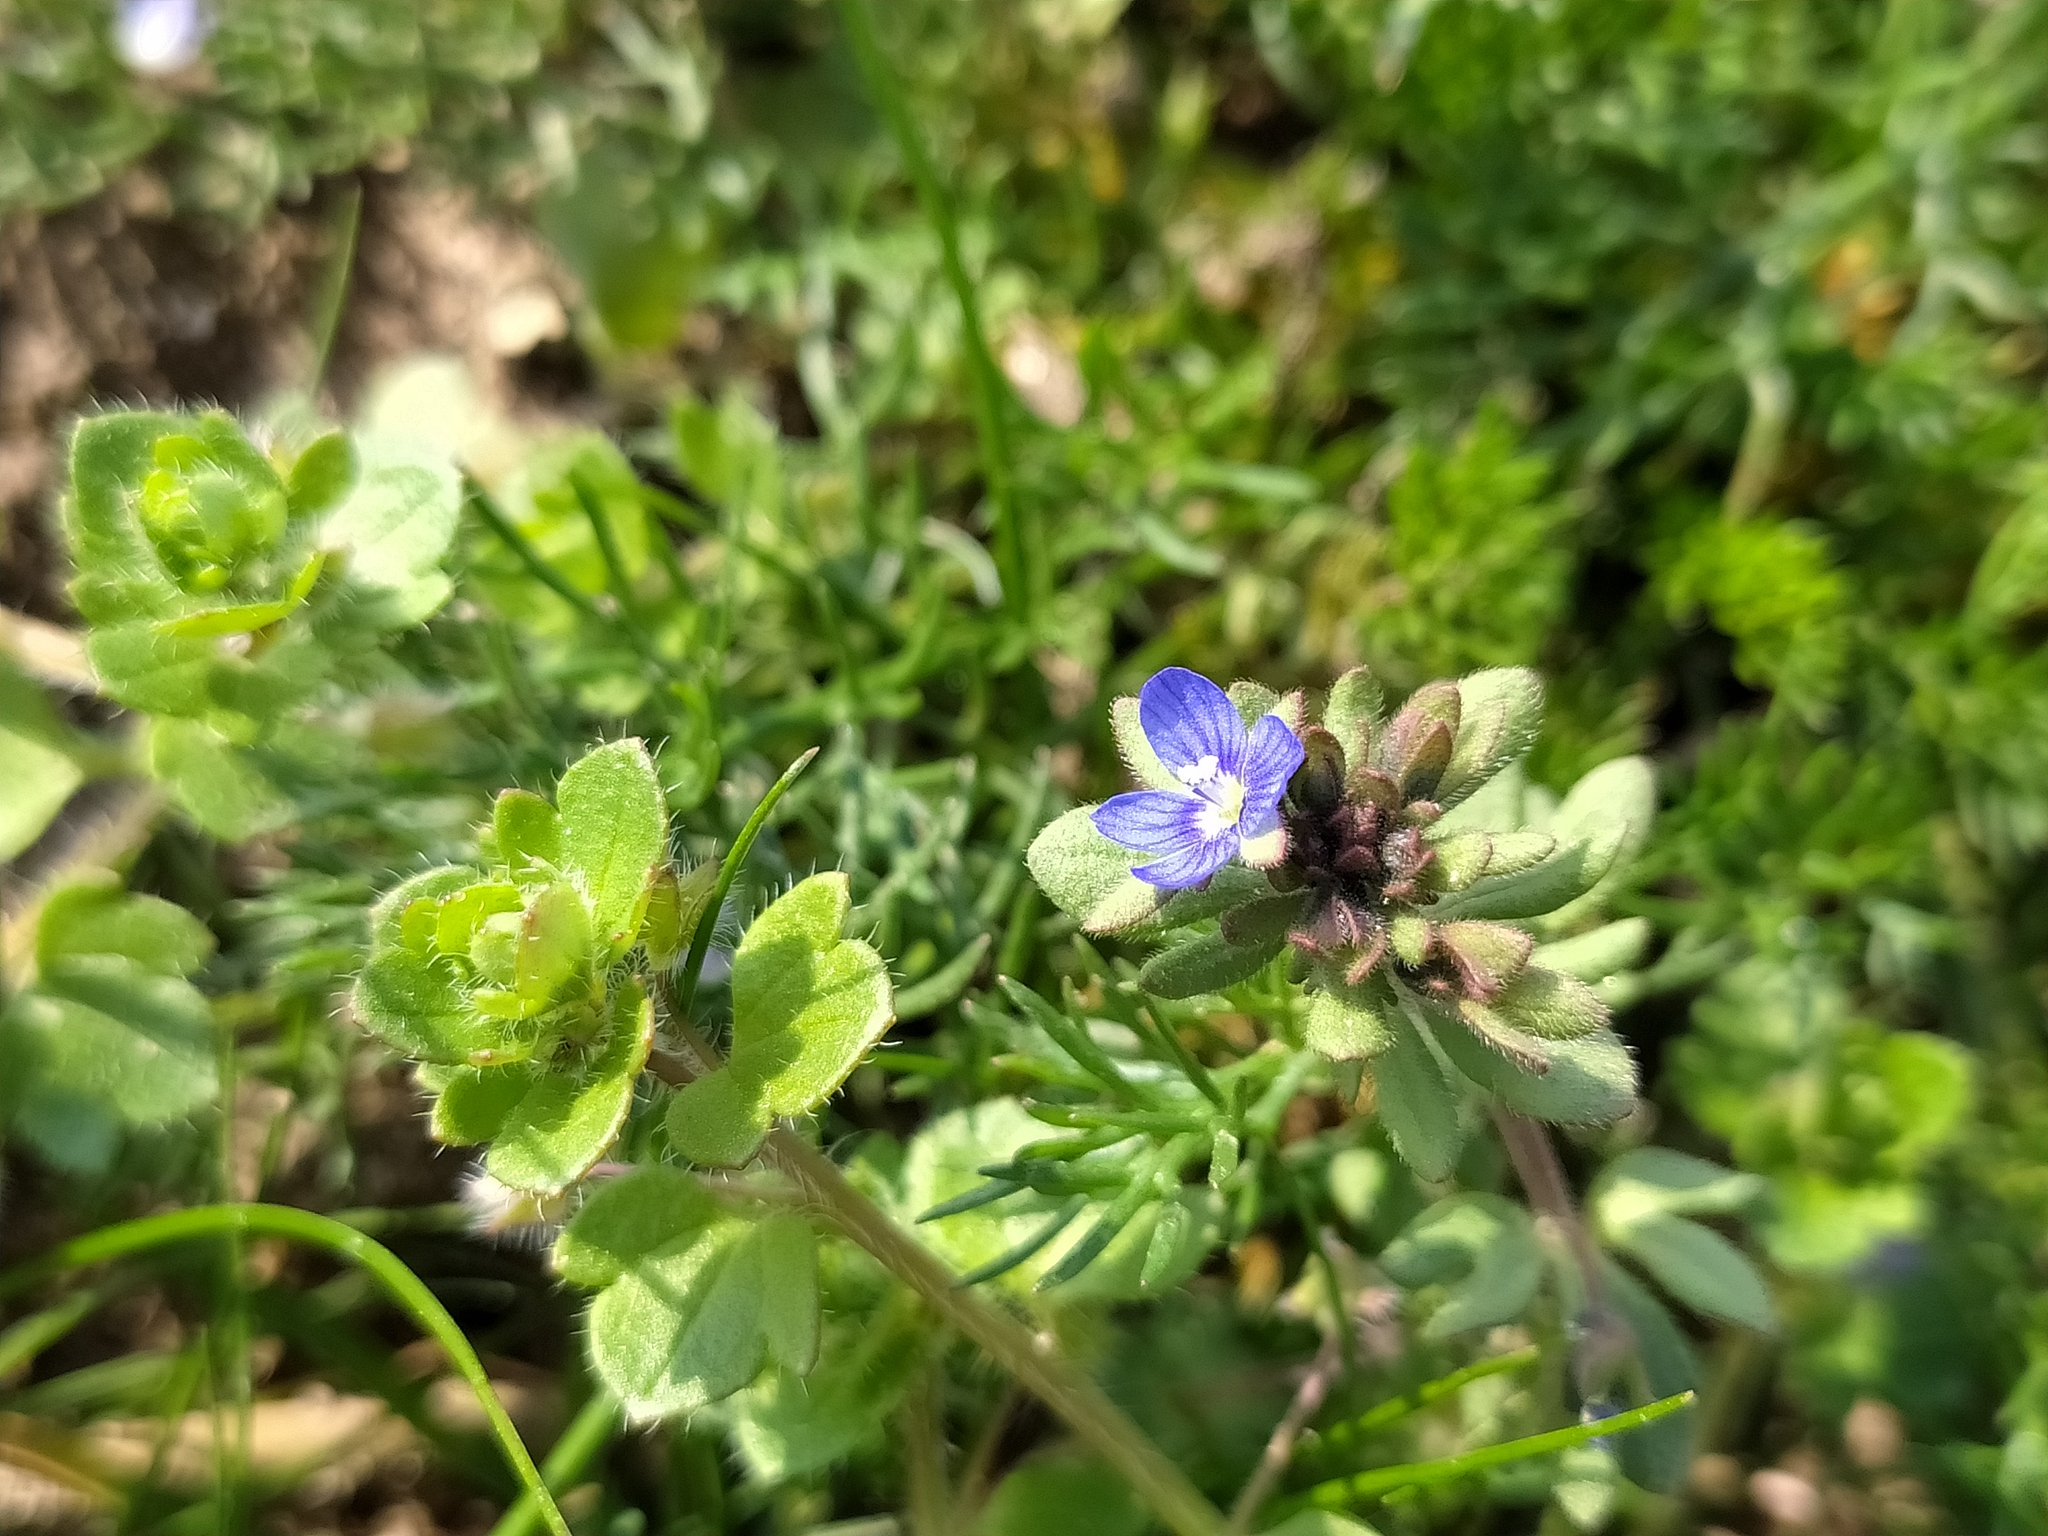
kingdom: Plantae
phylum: Tracheophyta
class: Magnoliopsida
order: Lamiales
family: Plantaginaceae
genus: Veronica
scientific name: Veronica triphyllos
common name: Fingered speedwell
